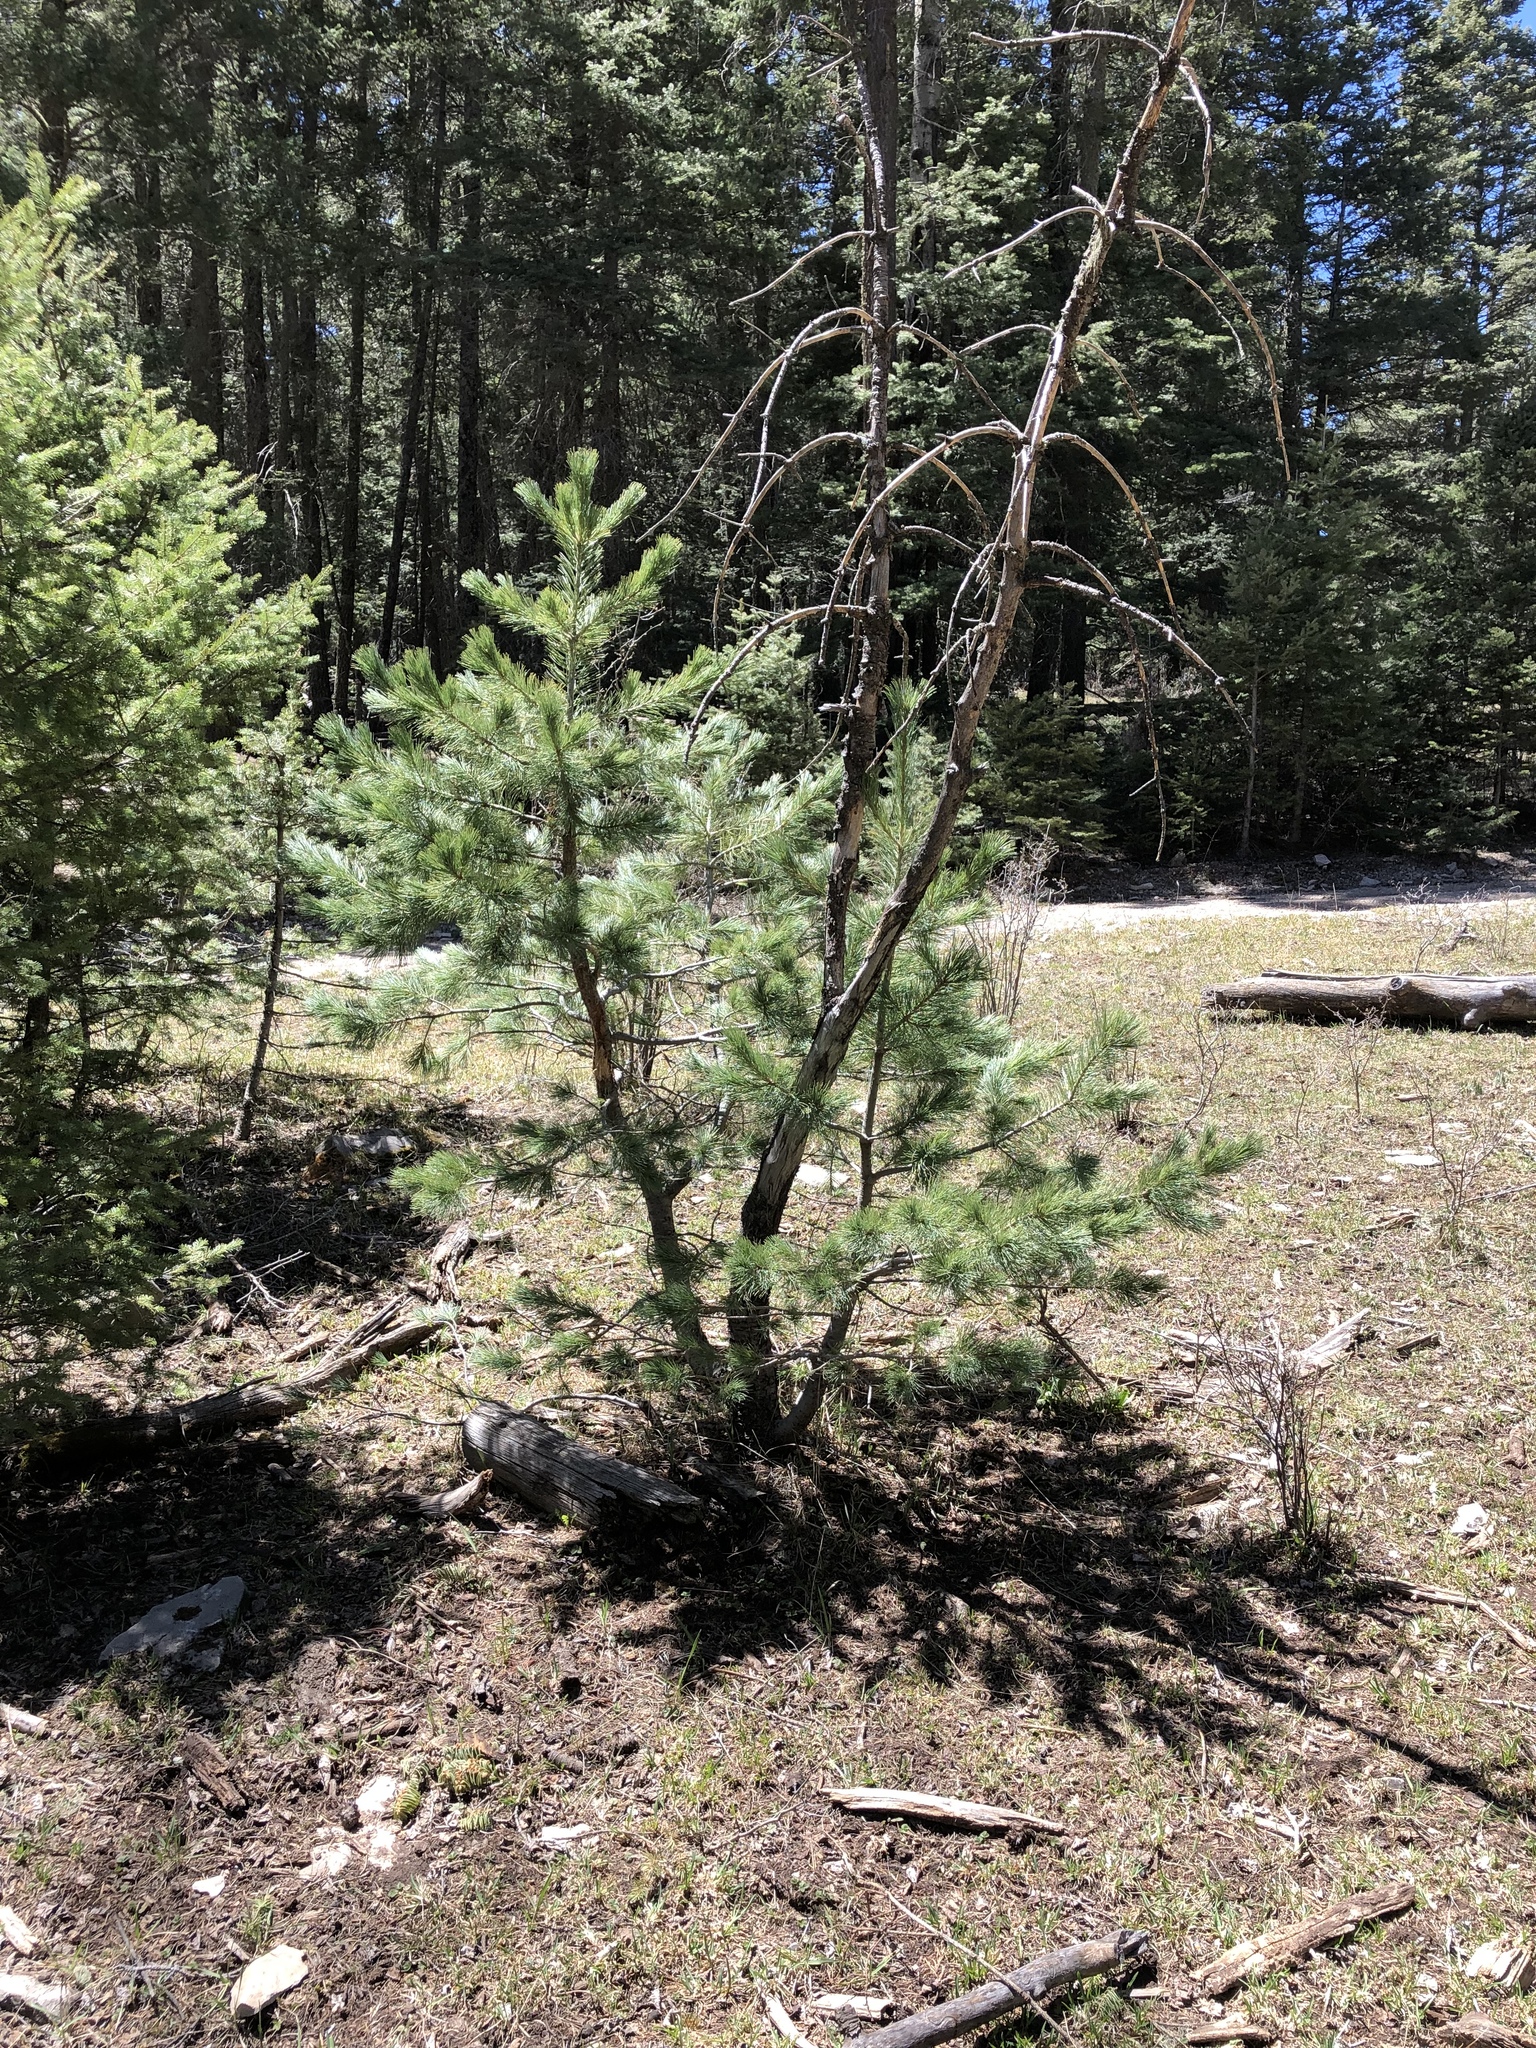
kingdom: Plantae
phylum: Tracheophyta
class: Pinopsida
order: Pinales
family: Pinaceae
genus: Pinus
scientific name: Pinus strobiformis
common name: Southwestern white pine
